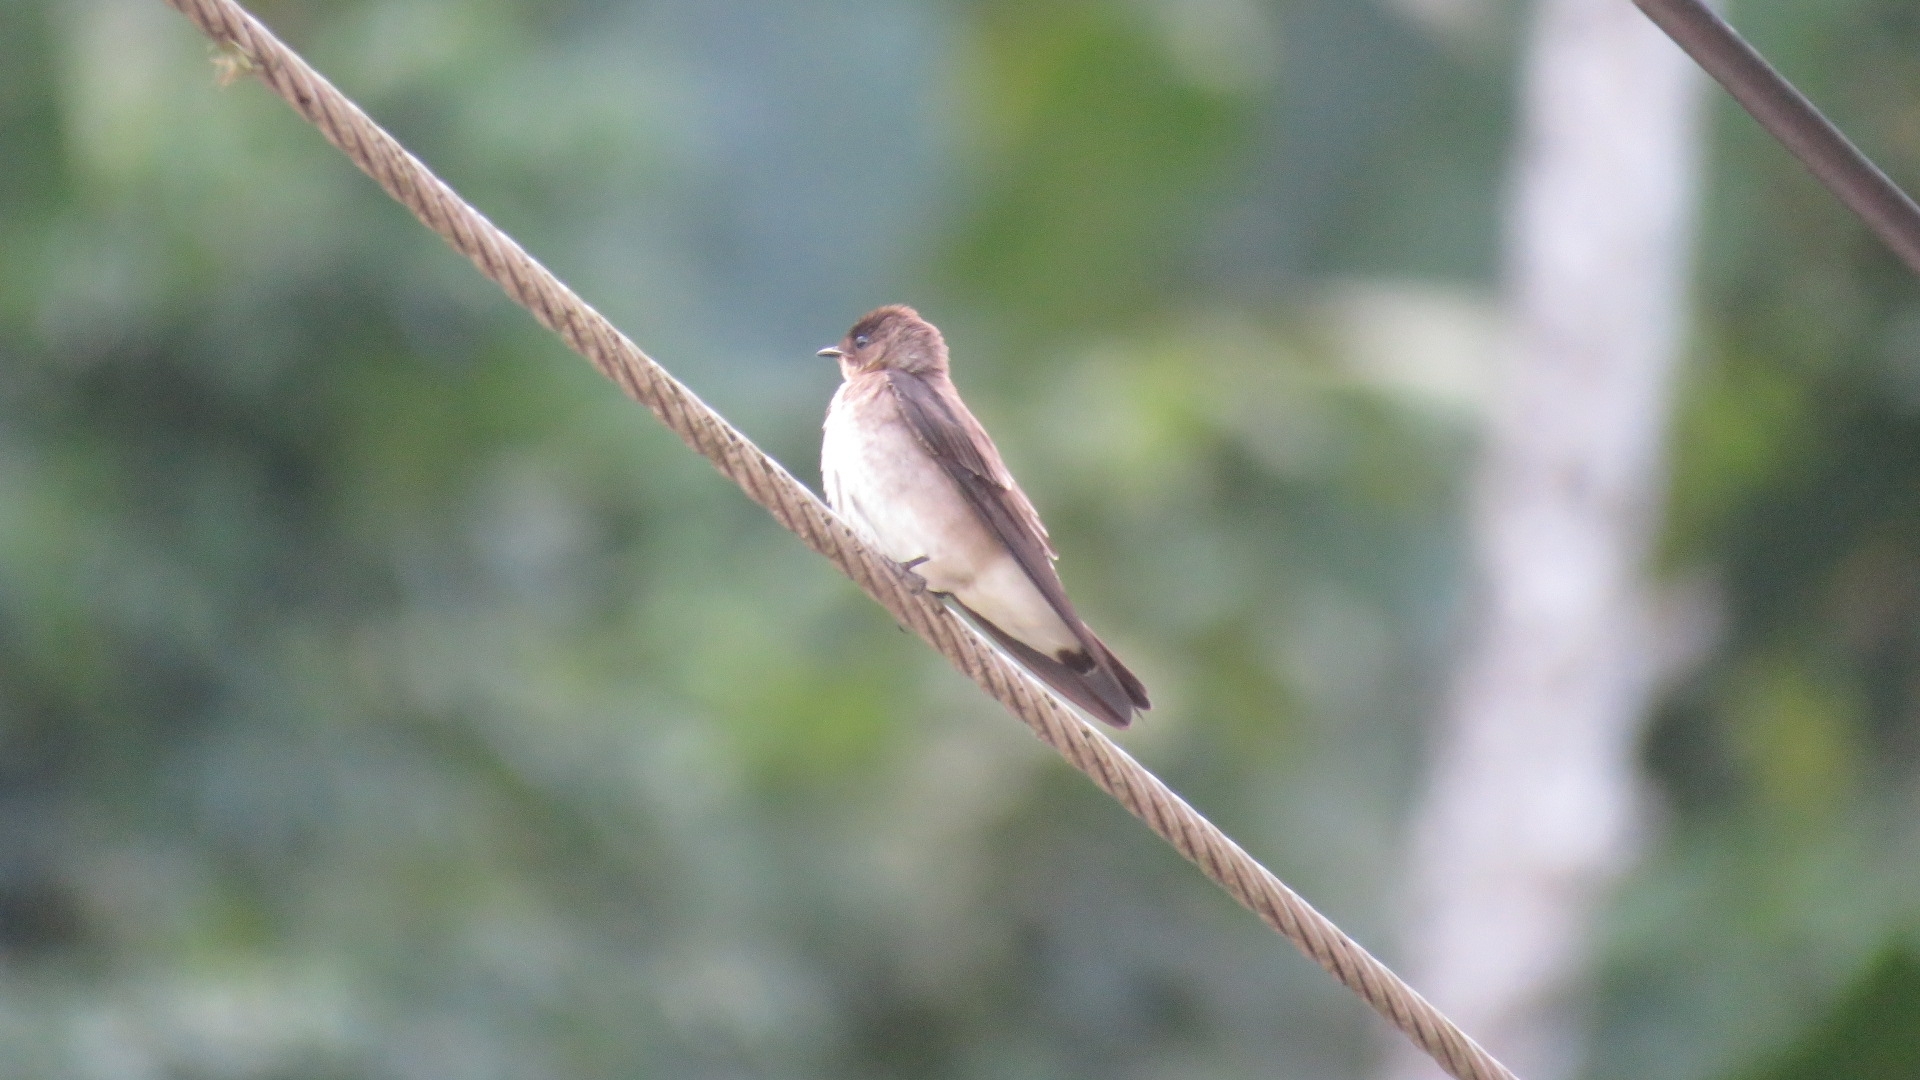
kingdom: Animalia
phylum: Chordata
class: Aves
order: Passeriformes
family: Hirundinidae
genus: Stelgidopteryx
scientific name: Stelgidopteryx ruficollis
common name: Southern rough-winged swallow
